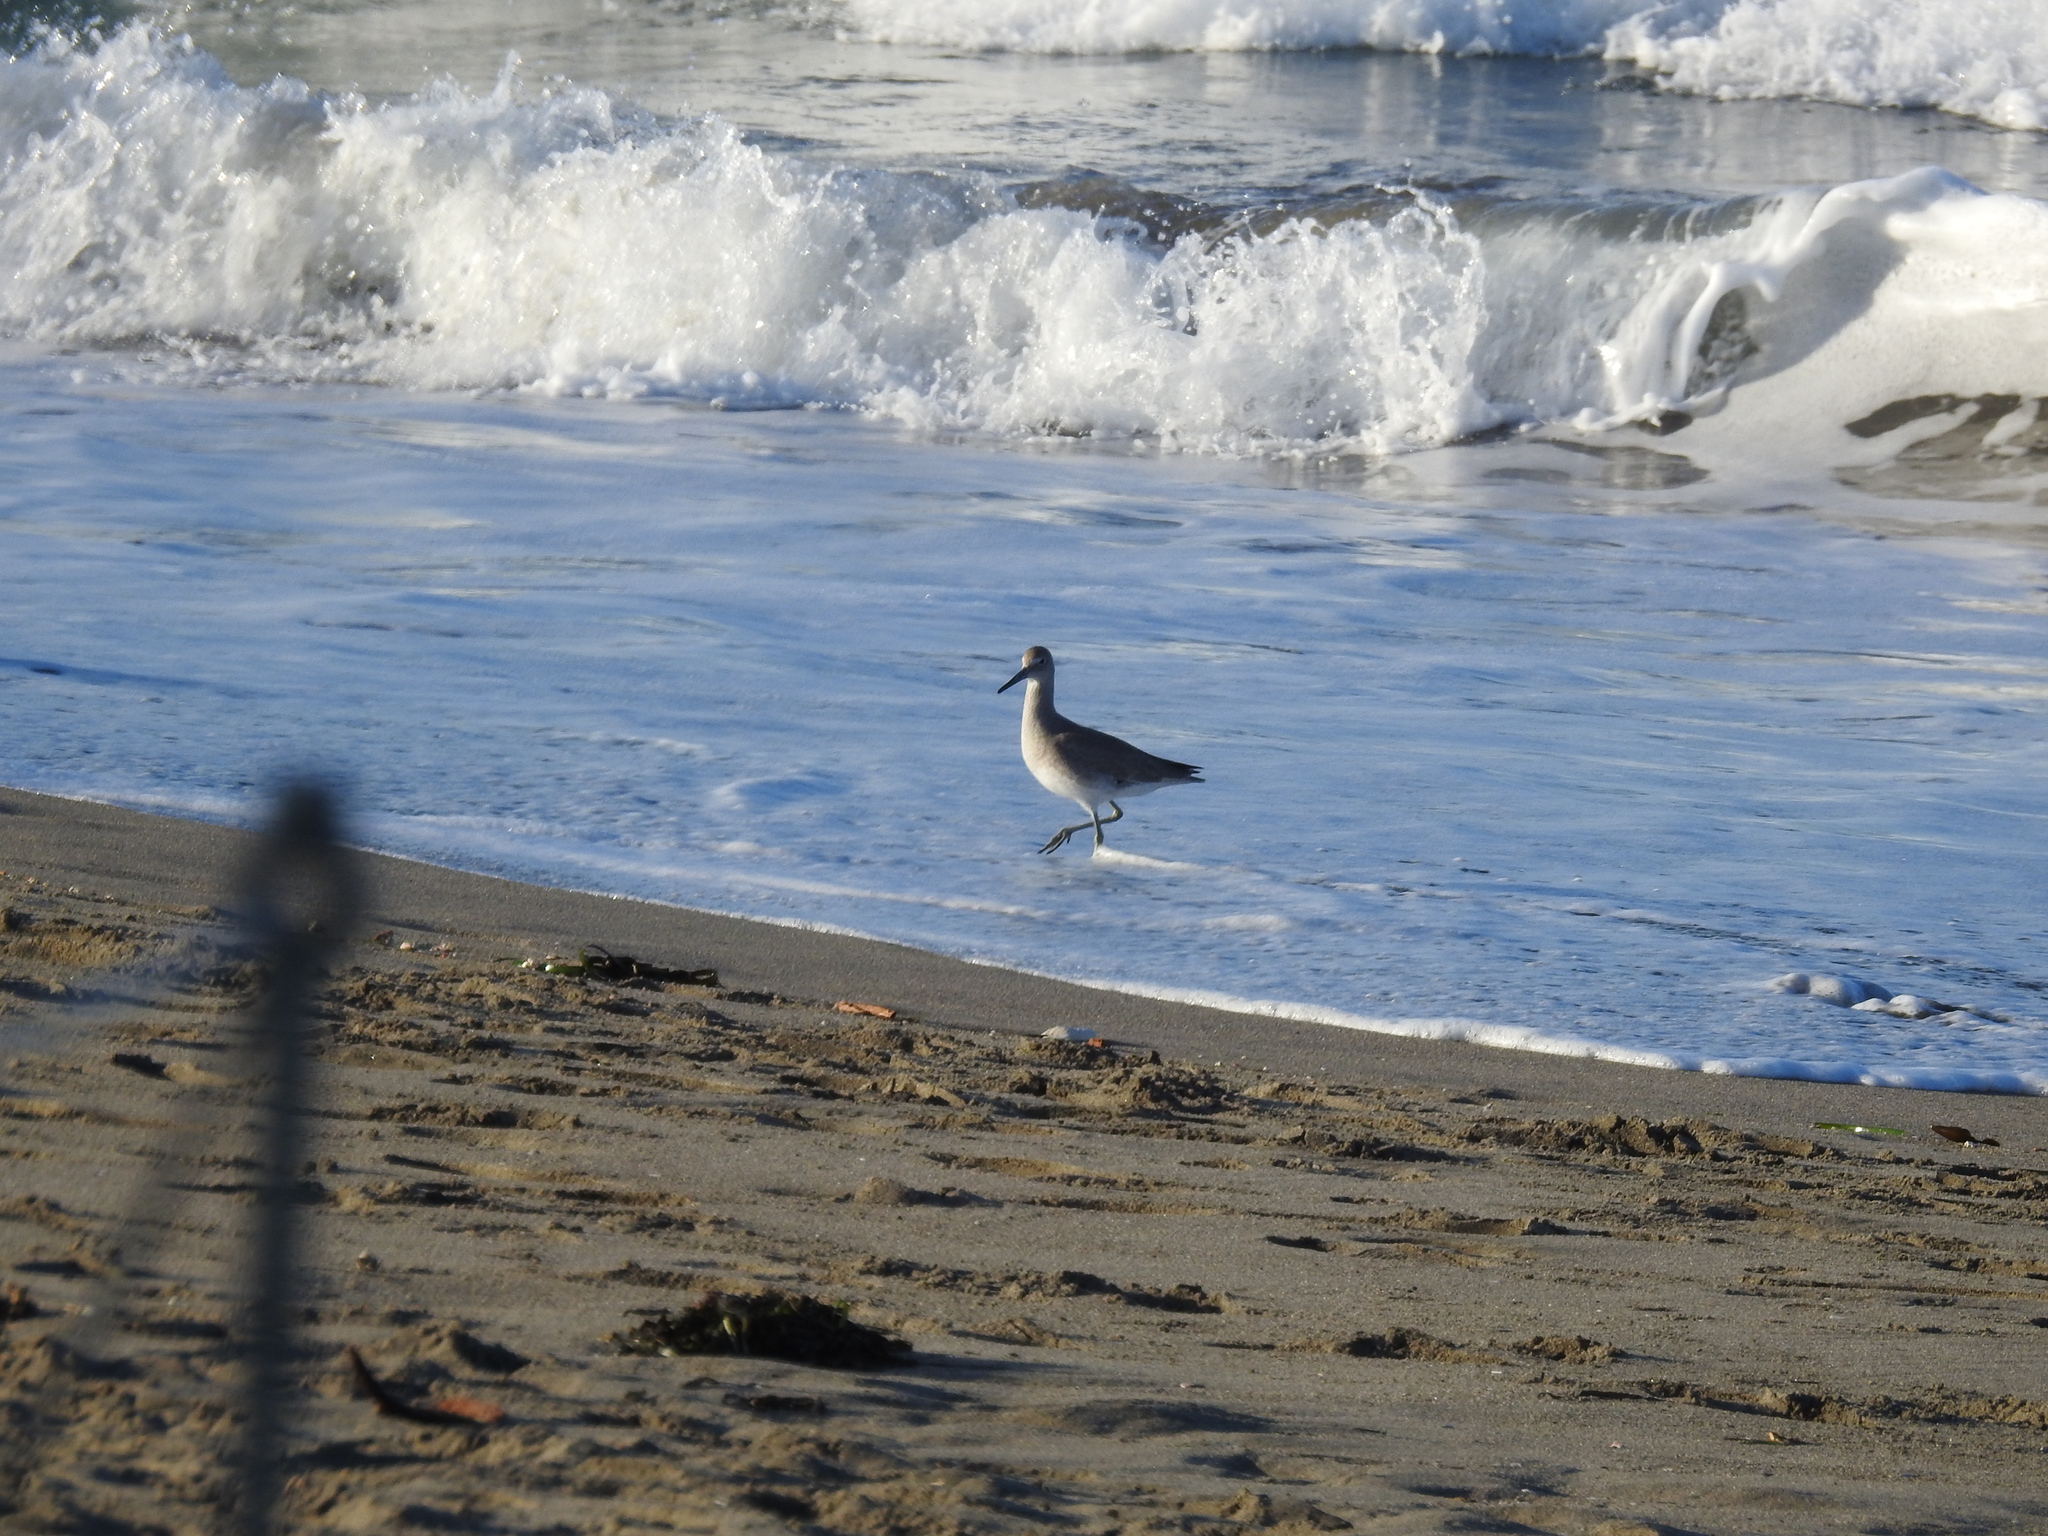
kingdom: Animalia
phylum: Chordata
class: Aves
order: Charadriiformes
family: Scolopacidae
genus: Tringa
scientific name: Tringa semipalmata
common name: Willet
